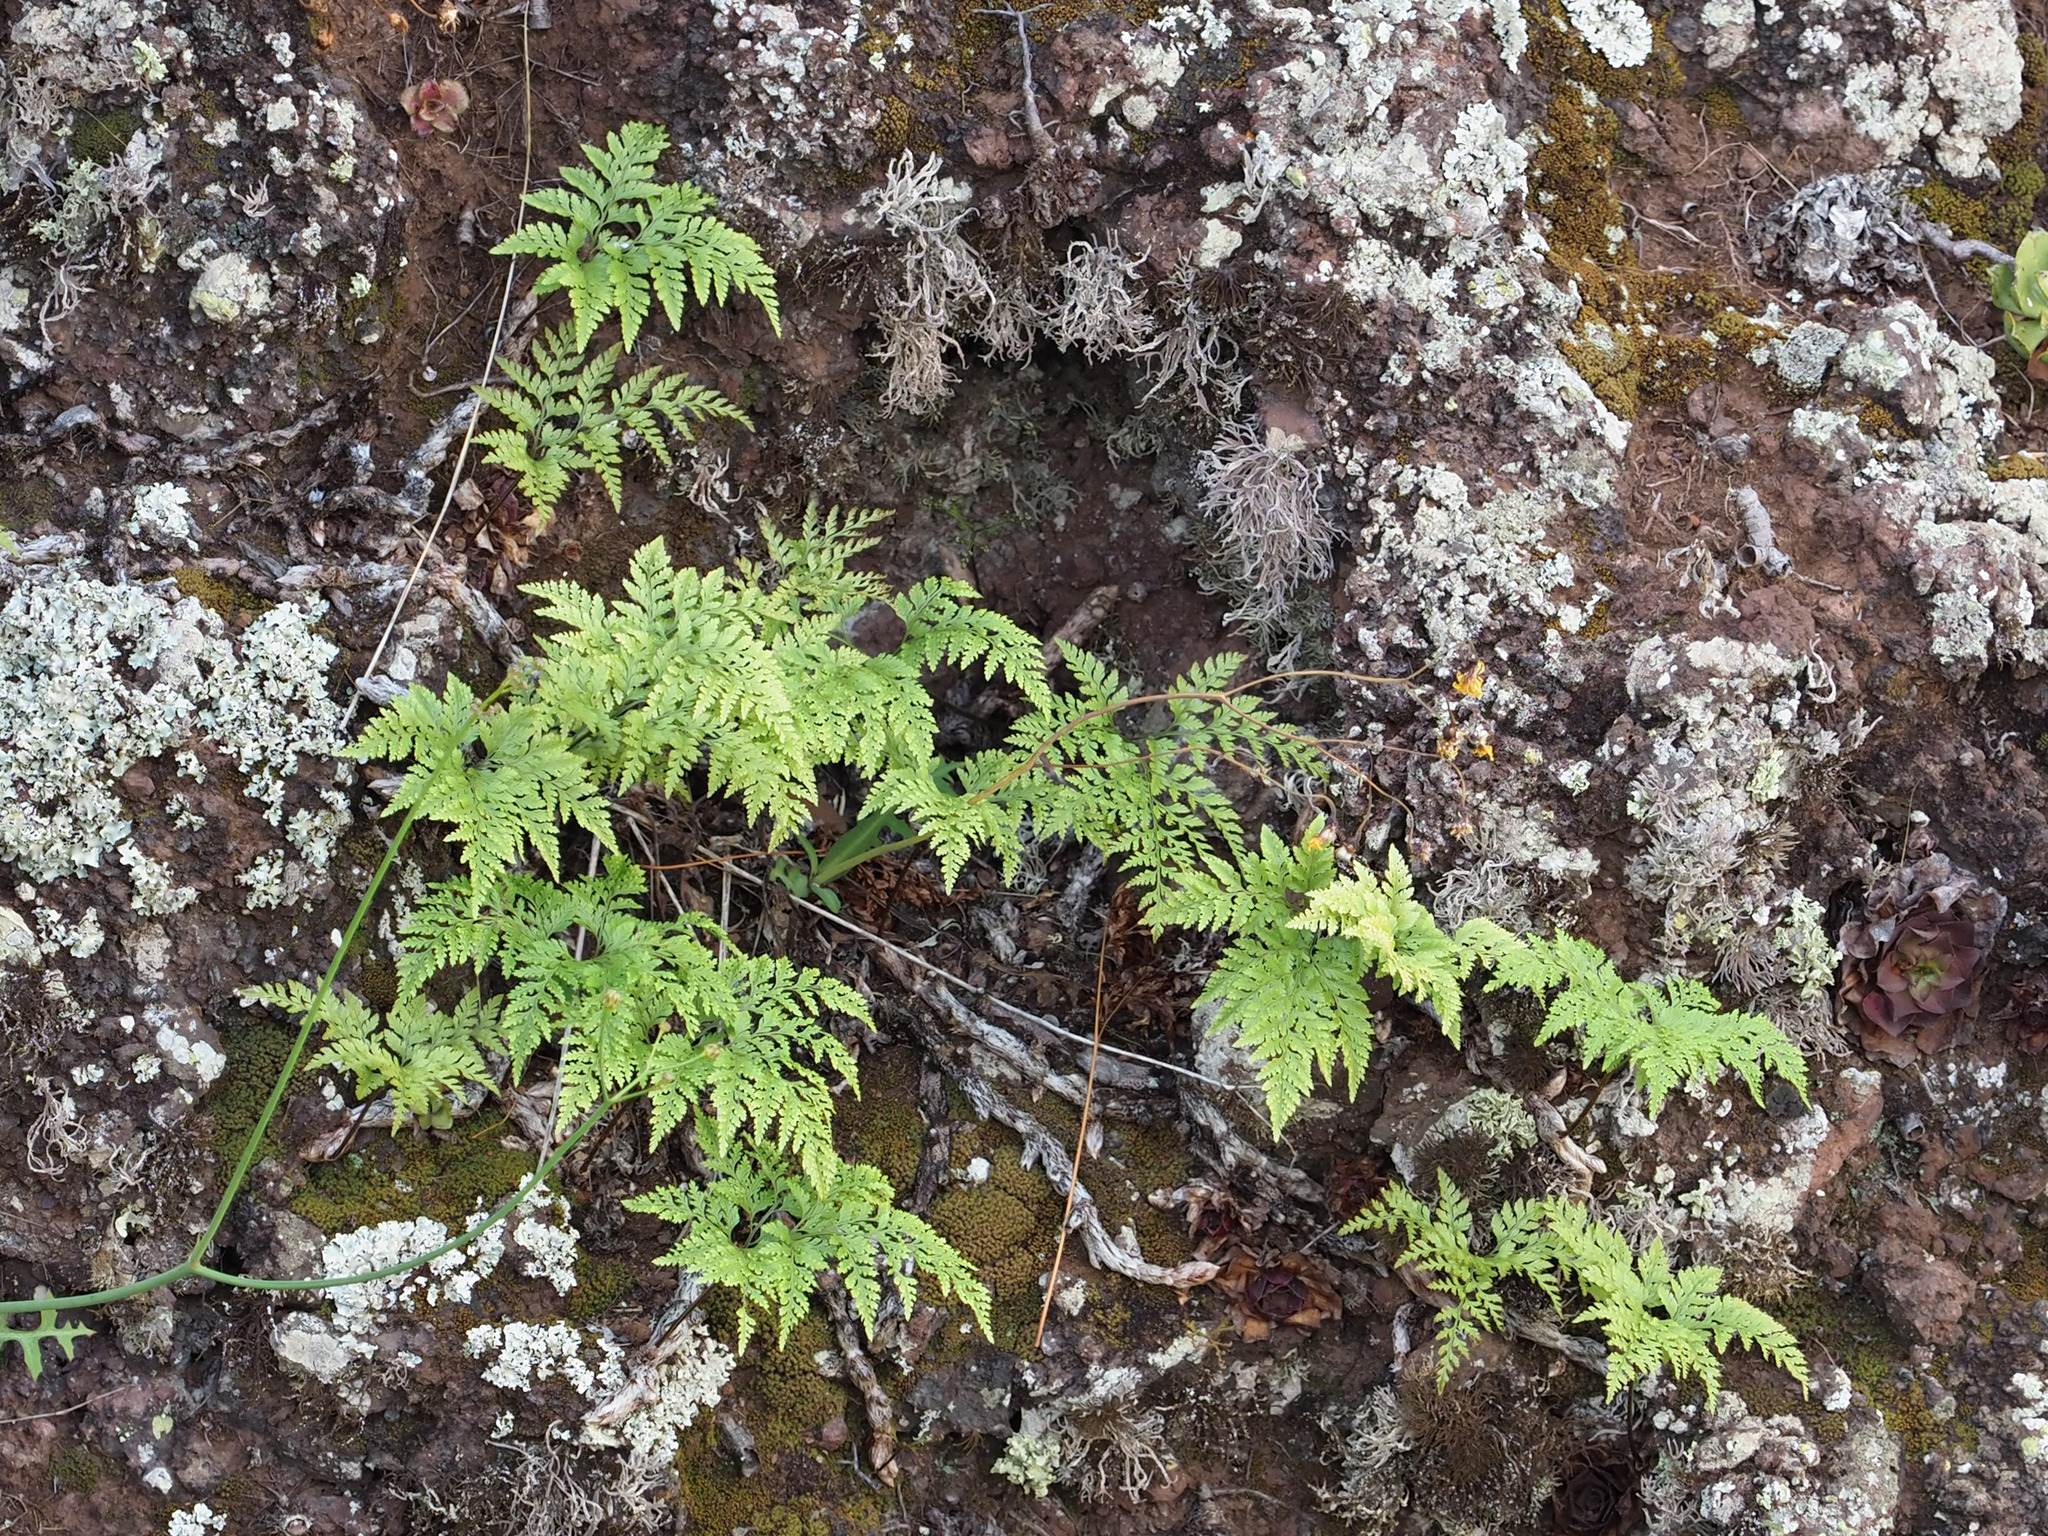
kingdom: Plantae
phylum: Tracheophyta
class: Polypodiopsida
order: Polypodiales
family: Davalliaceae
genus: Davallia
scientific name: Davallia canariensis
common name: Hare's-foot fern
